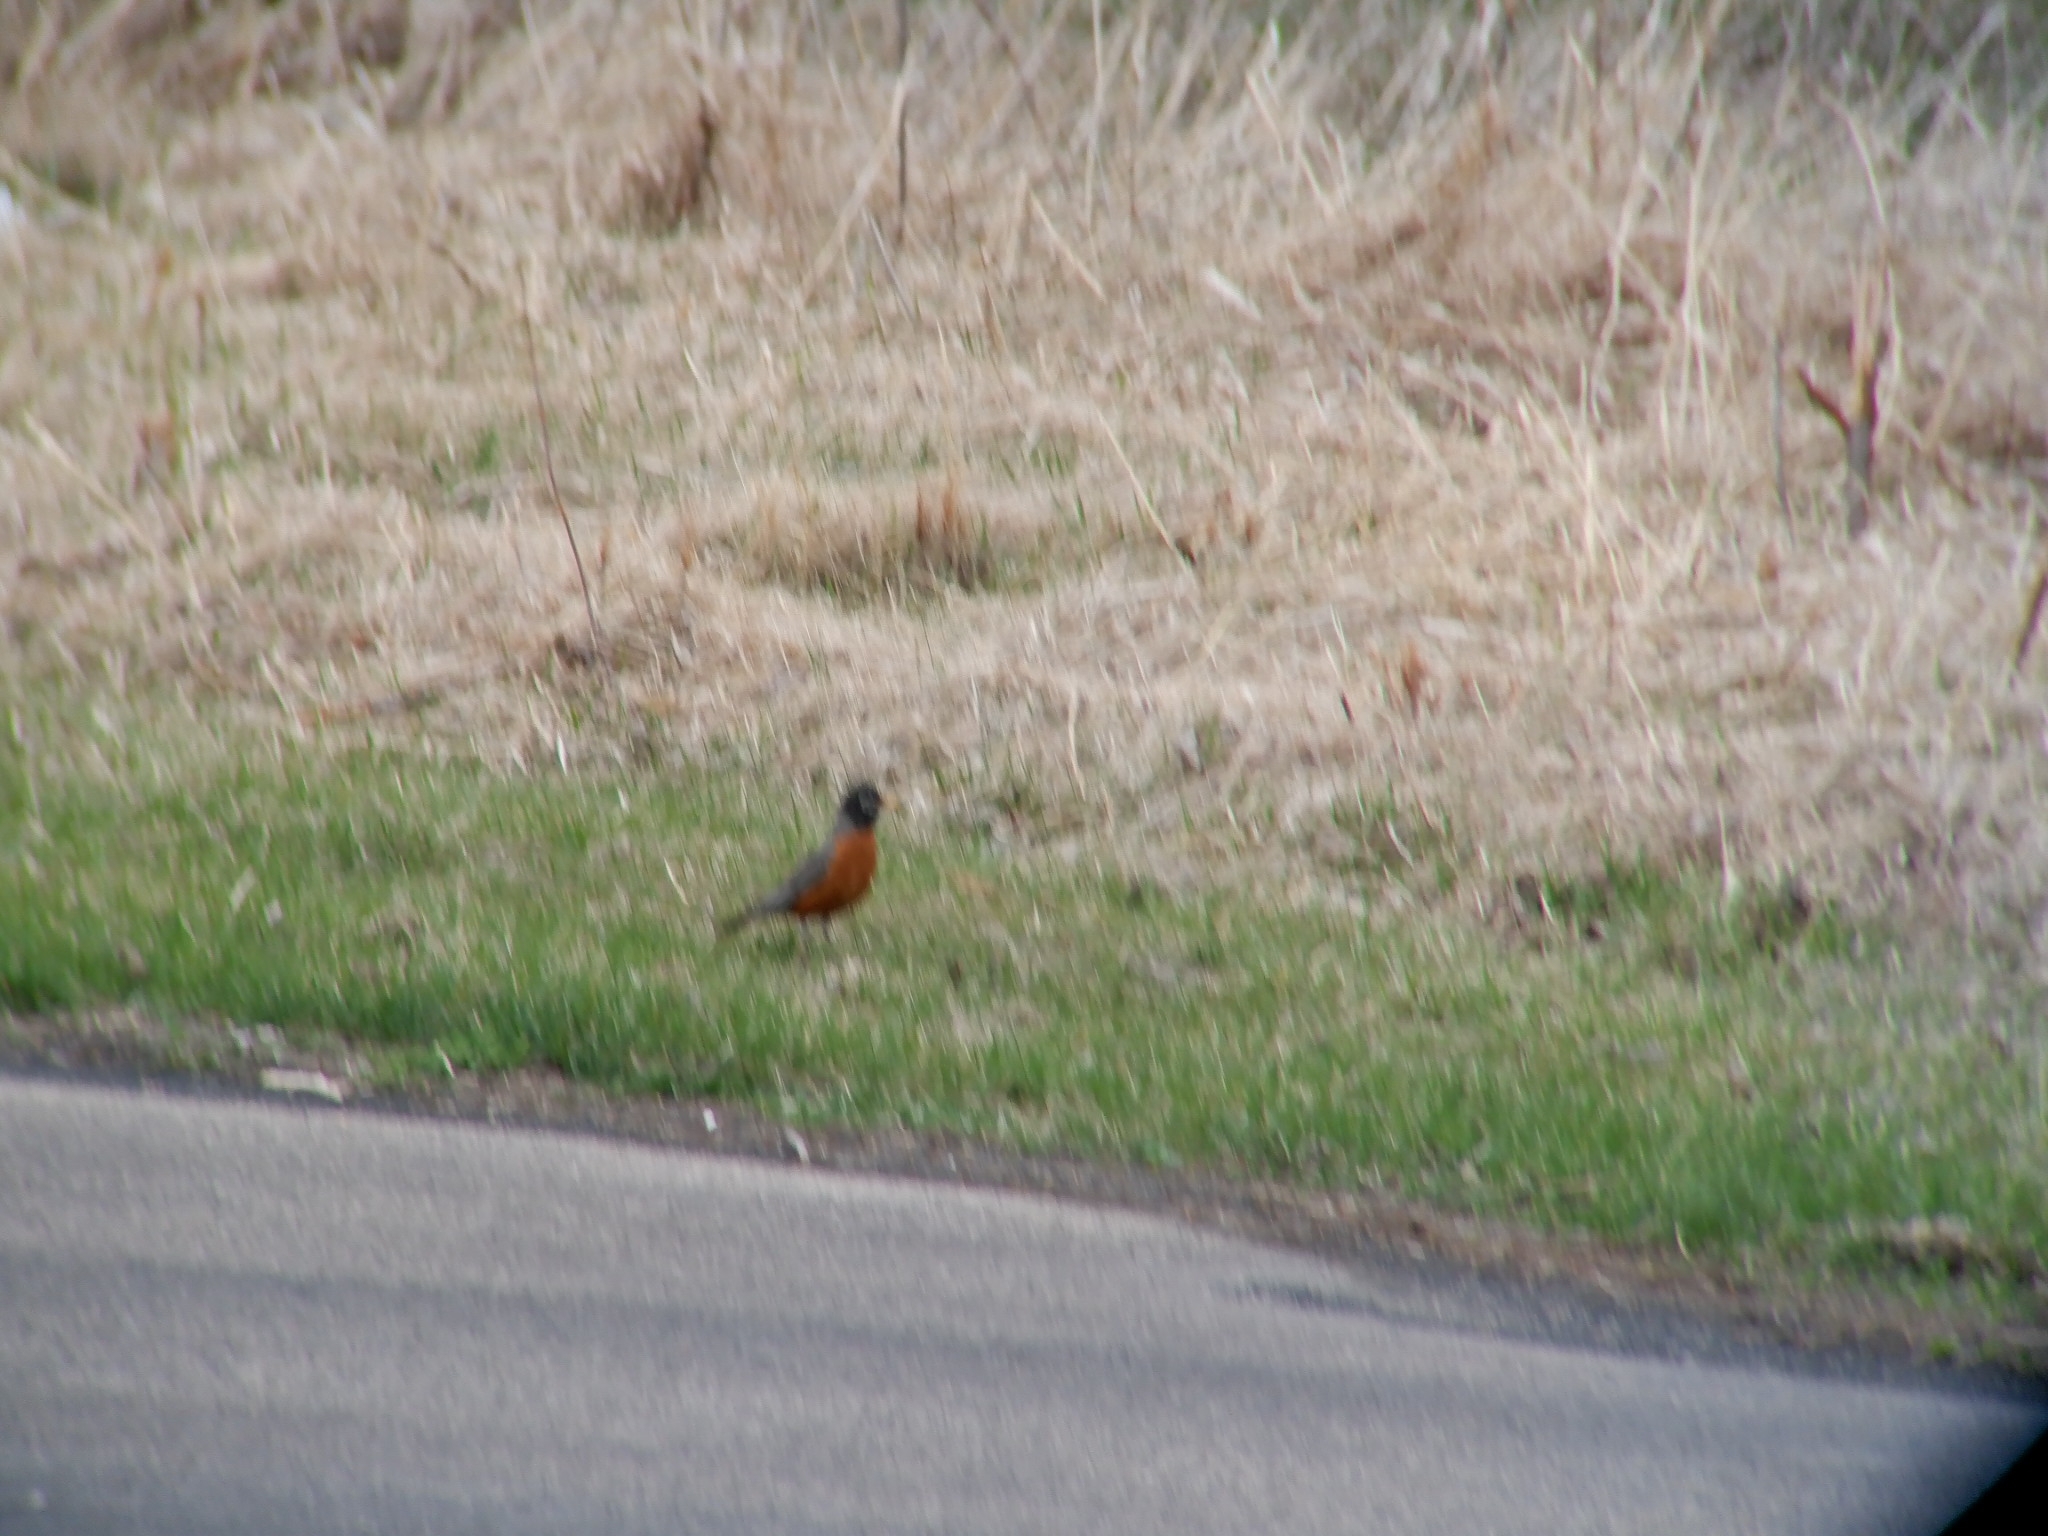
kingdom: Animalia
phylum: Chordata
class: Aves
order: Passeriformes
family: Turdidae
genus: Turdus
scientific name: Turdus migratorius
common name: American robin
